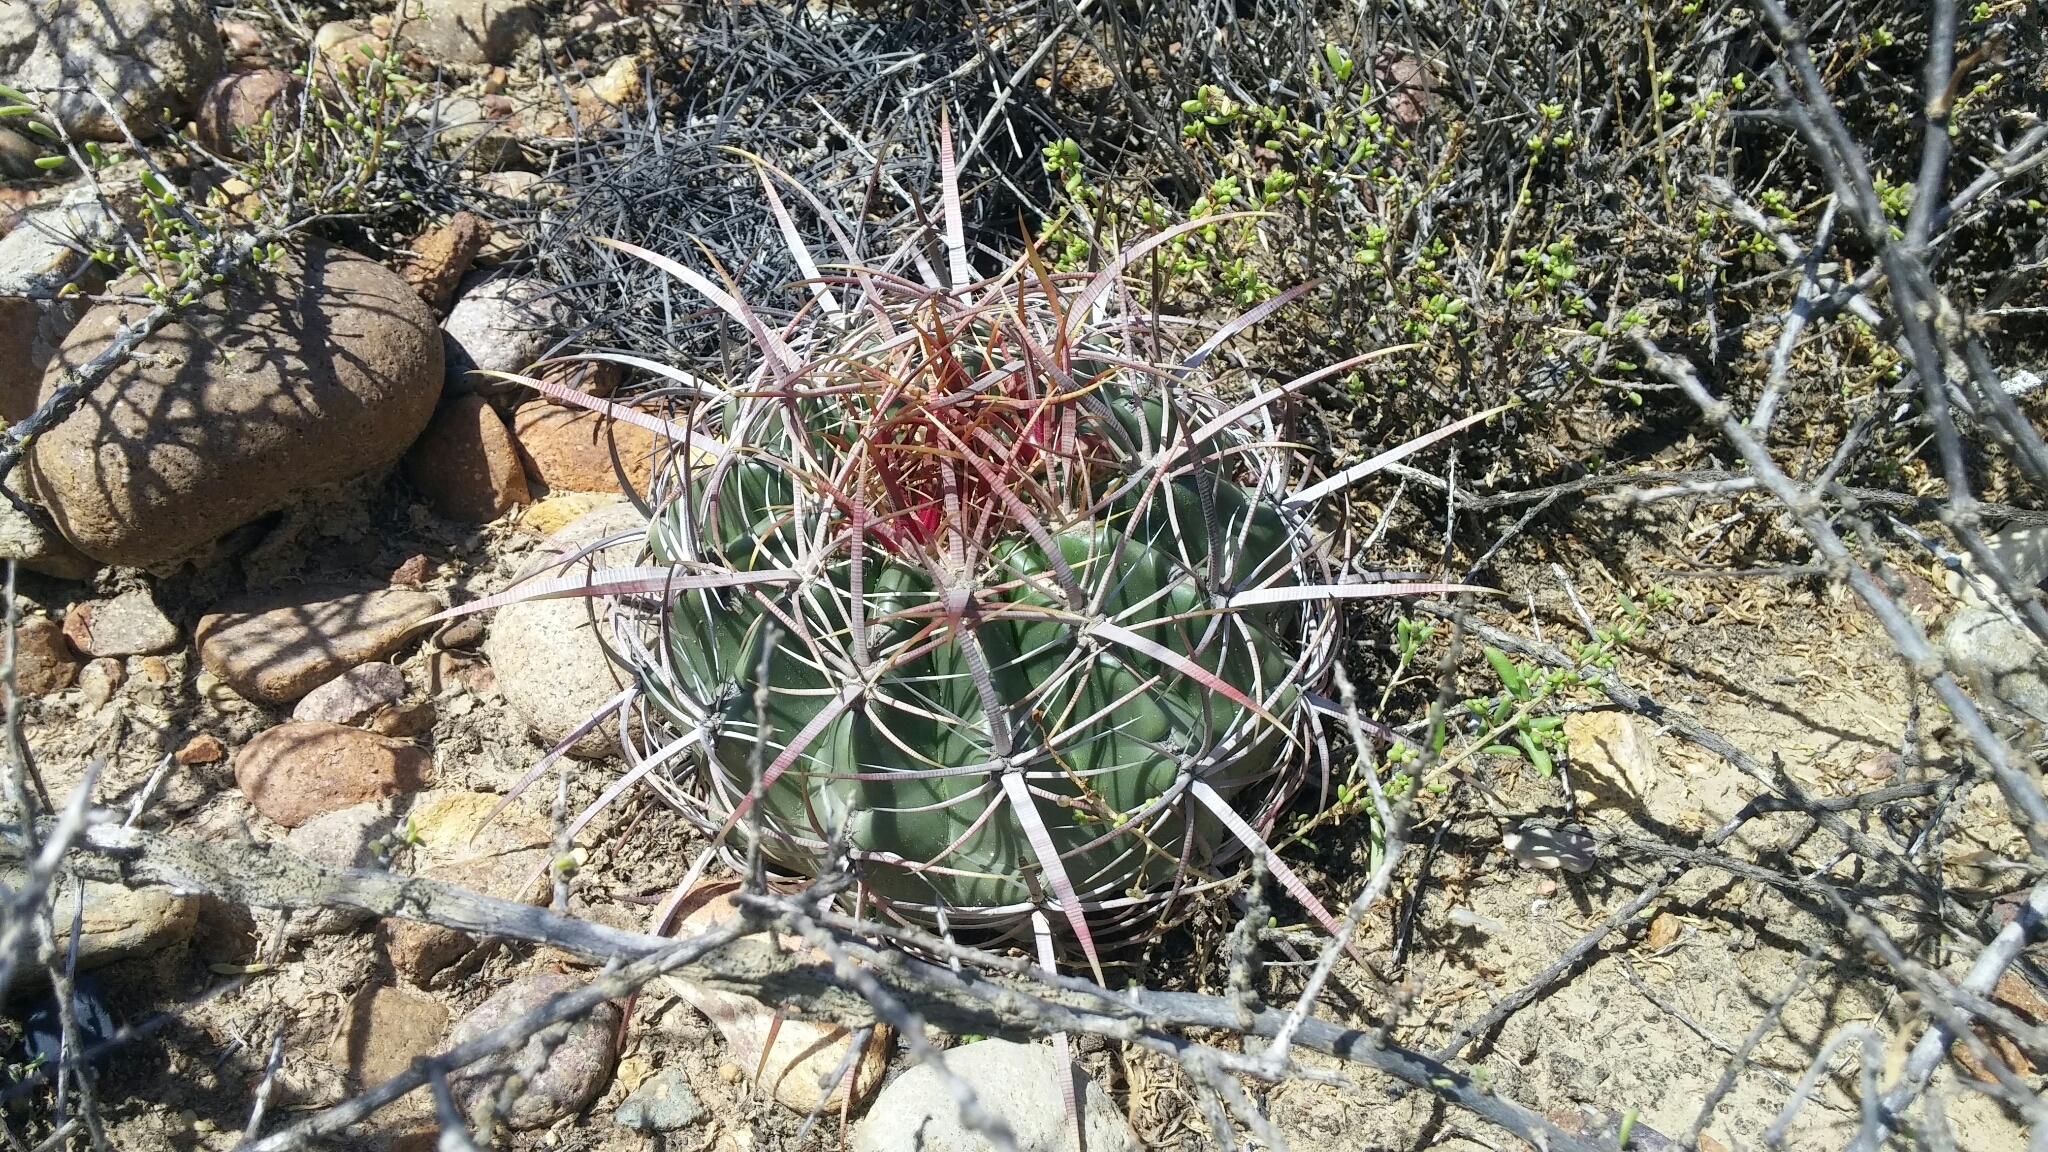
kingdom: Plantae
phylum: Tracheophyta
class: Magnoliopsida
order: Caryophyllales
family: Cactaceae
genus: Ferocactus
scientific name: Ferocactus viridescens
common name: San diego barrel cactus
